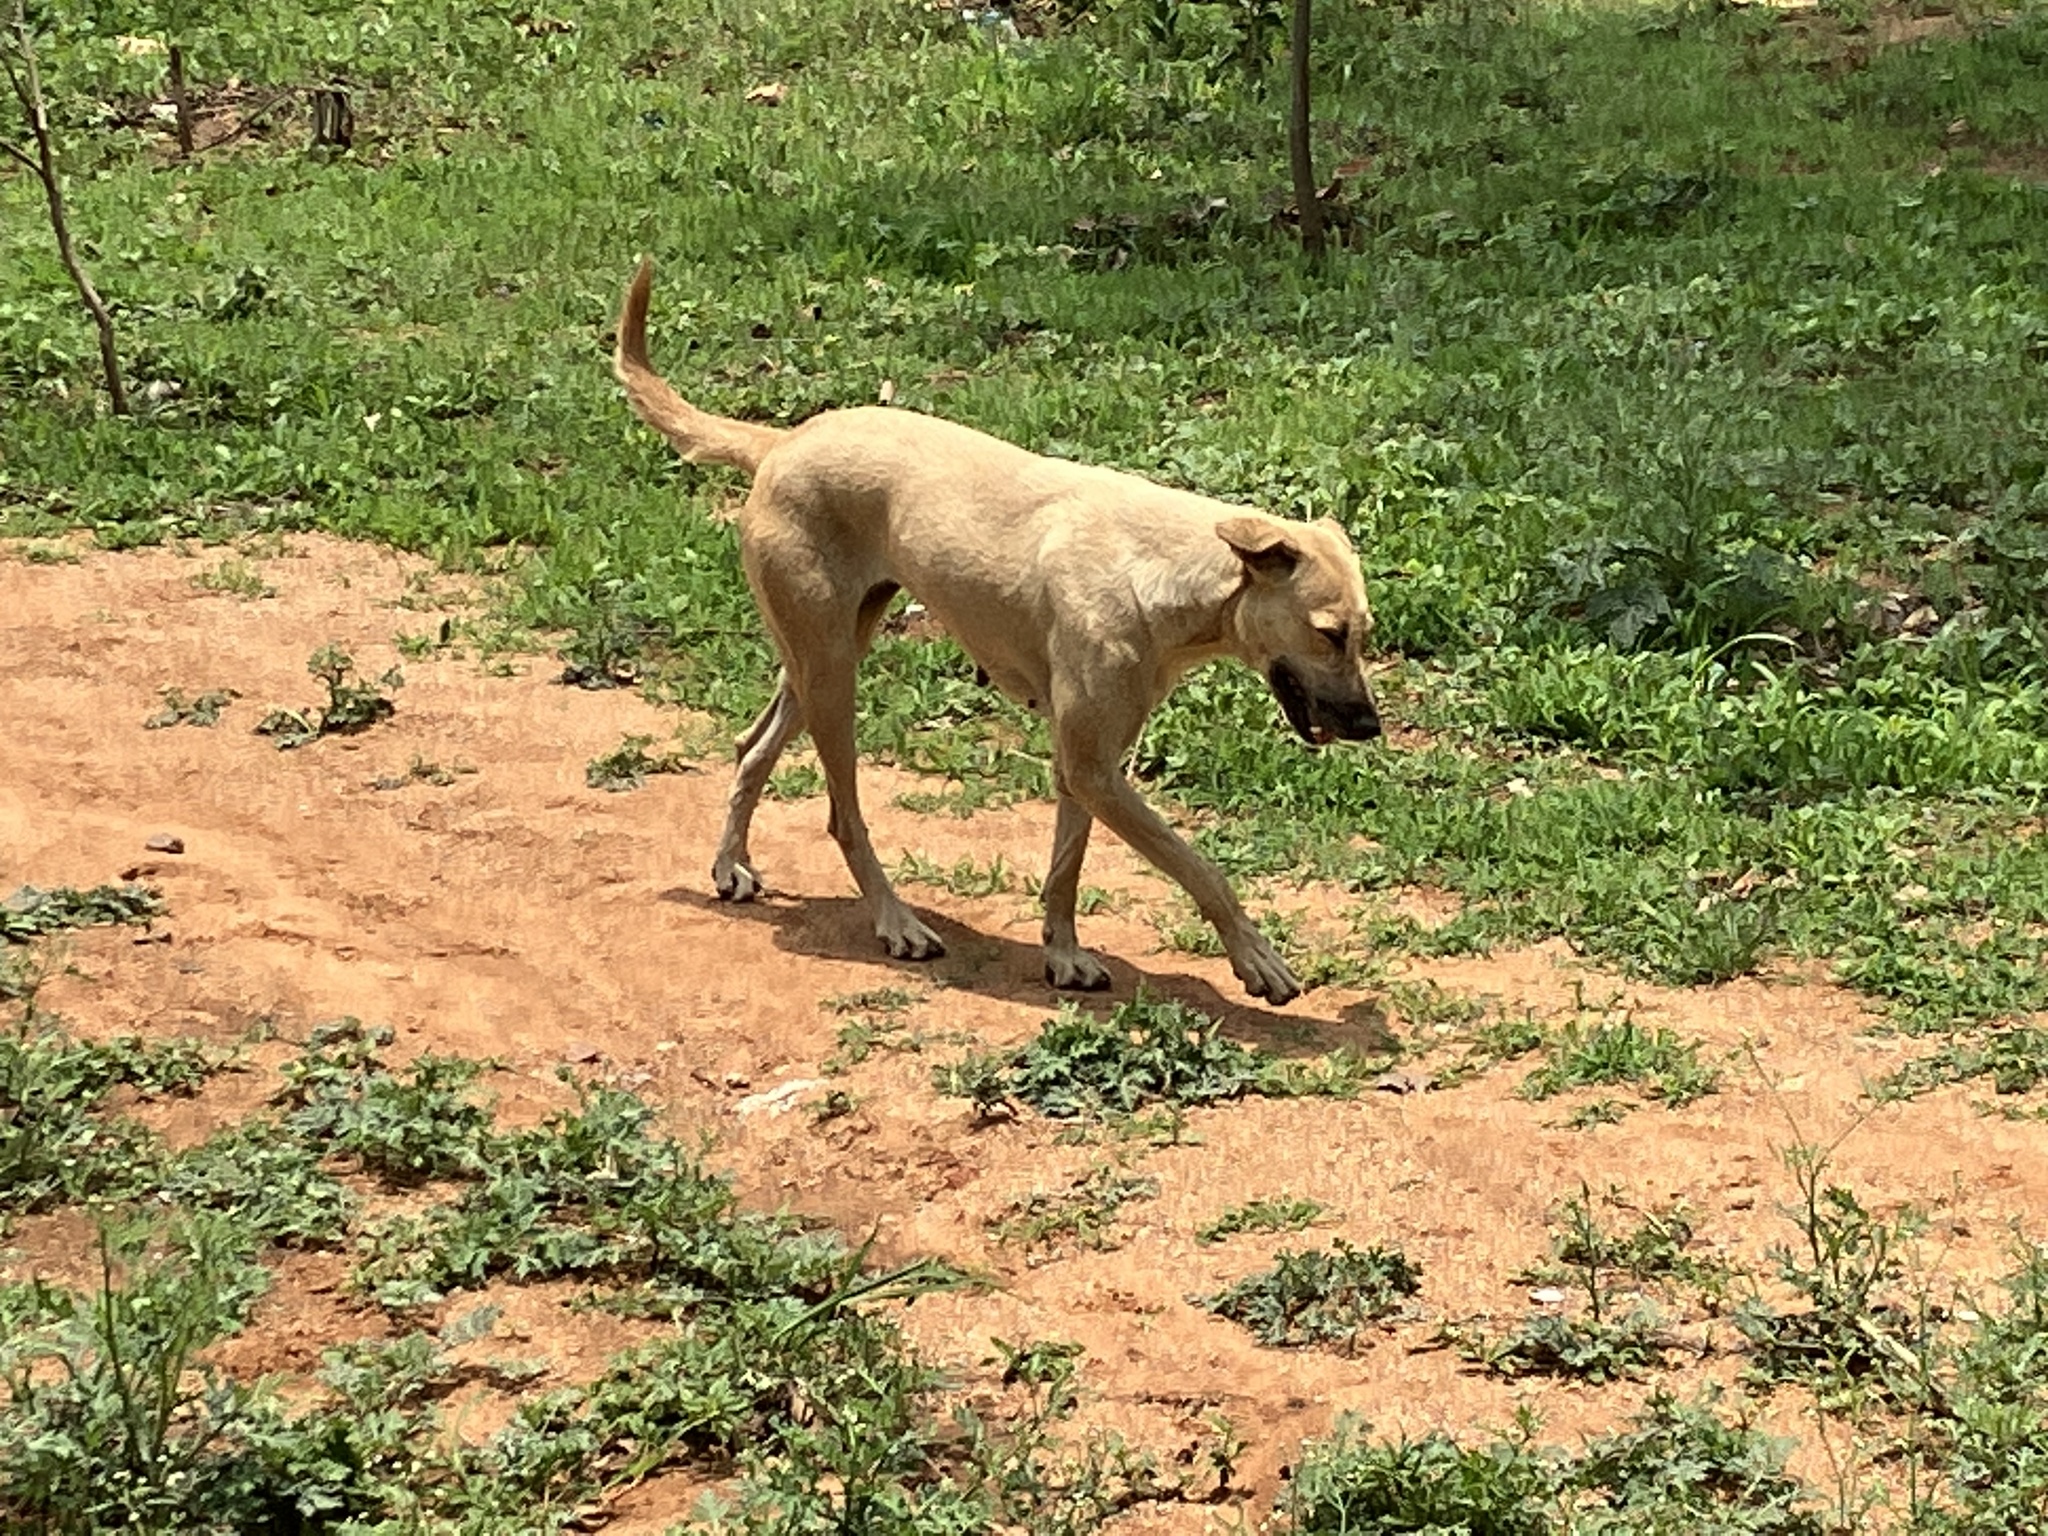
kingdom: Animalia
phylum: Chordata
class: Mammalia
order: Carnivora
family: Canidae
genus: Canis
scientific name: Canis lupus
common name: Gray wolf
